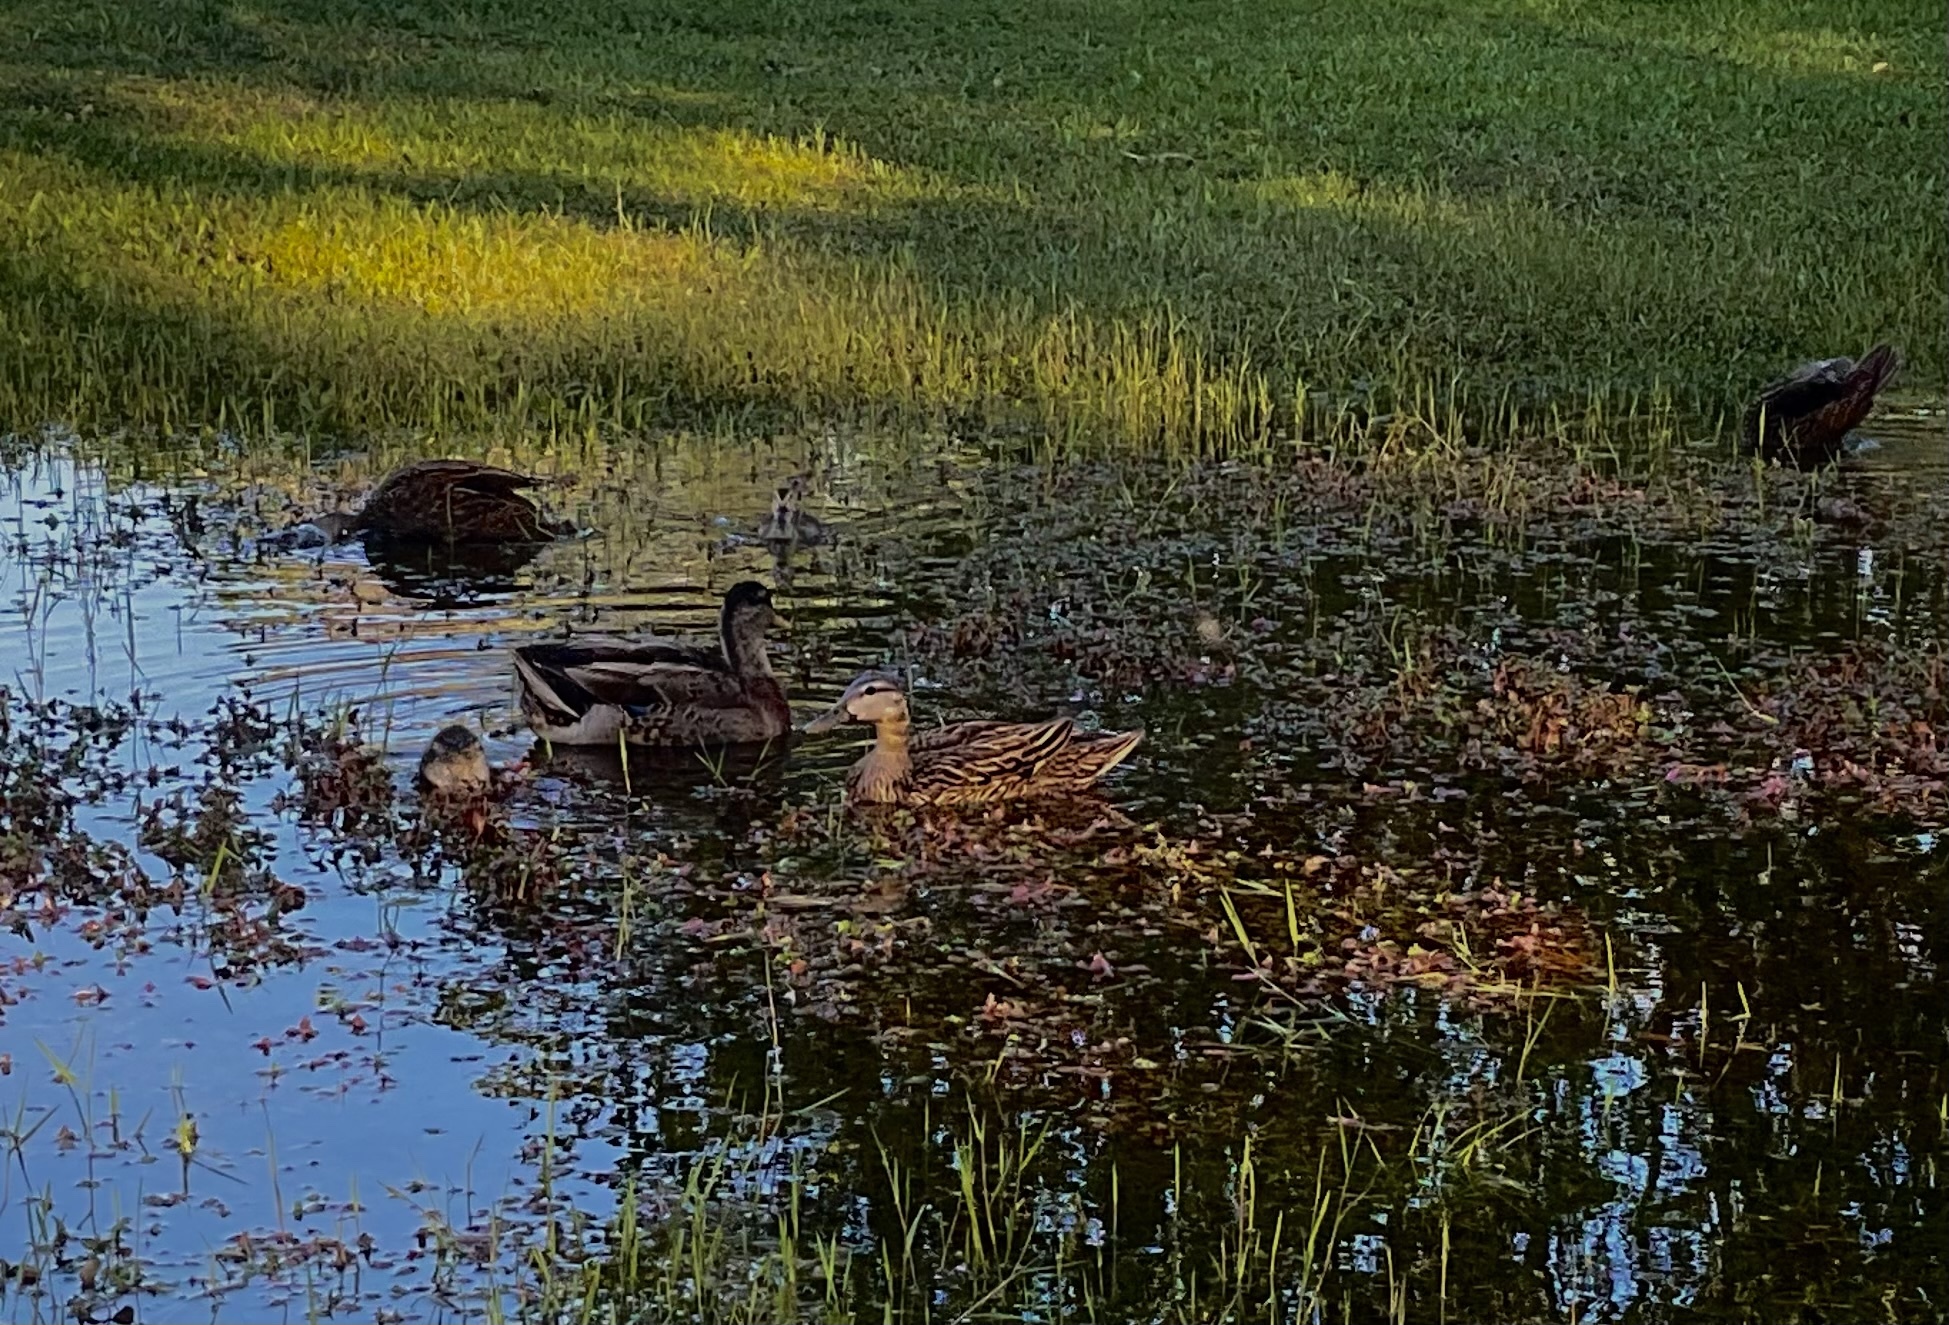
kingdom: Animalia
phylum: Chordata
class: Aves
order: Anseriformes
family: Anatidae
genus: Anas
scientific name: Anas platyrhynchos
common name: Mallard
